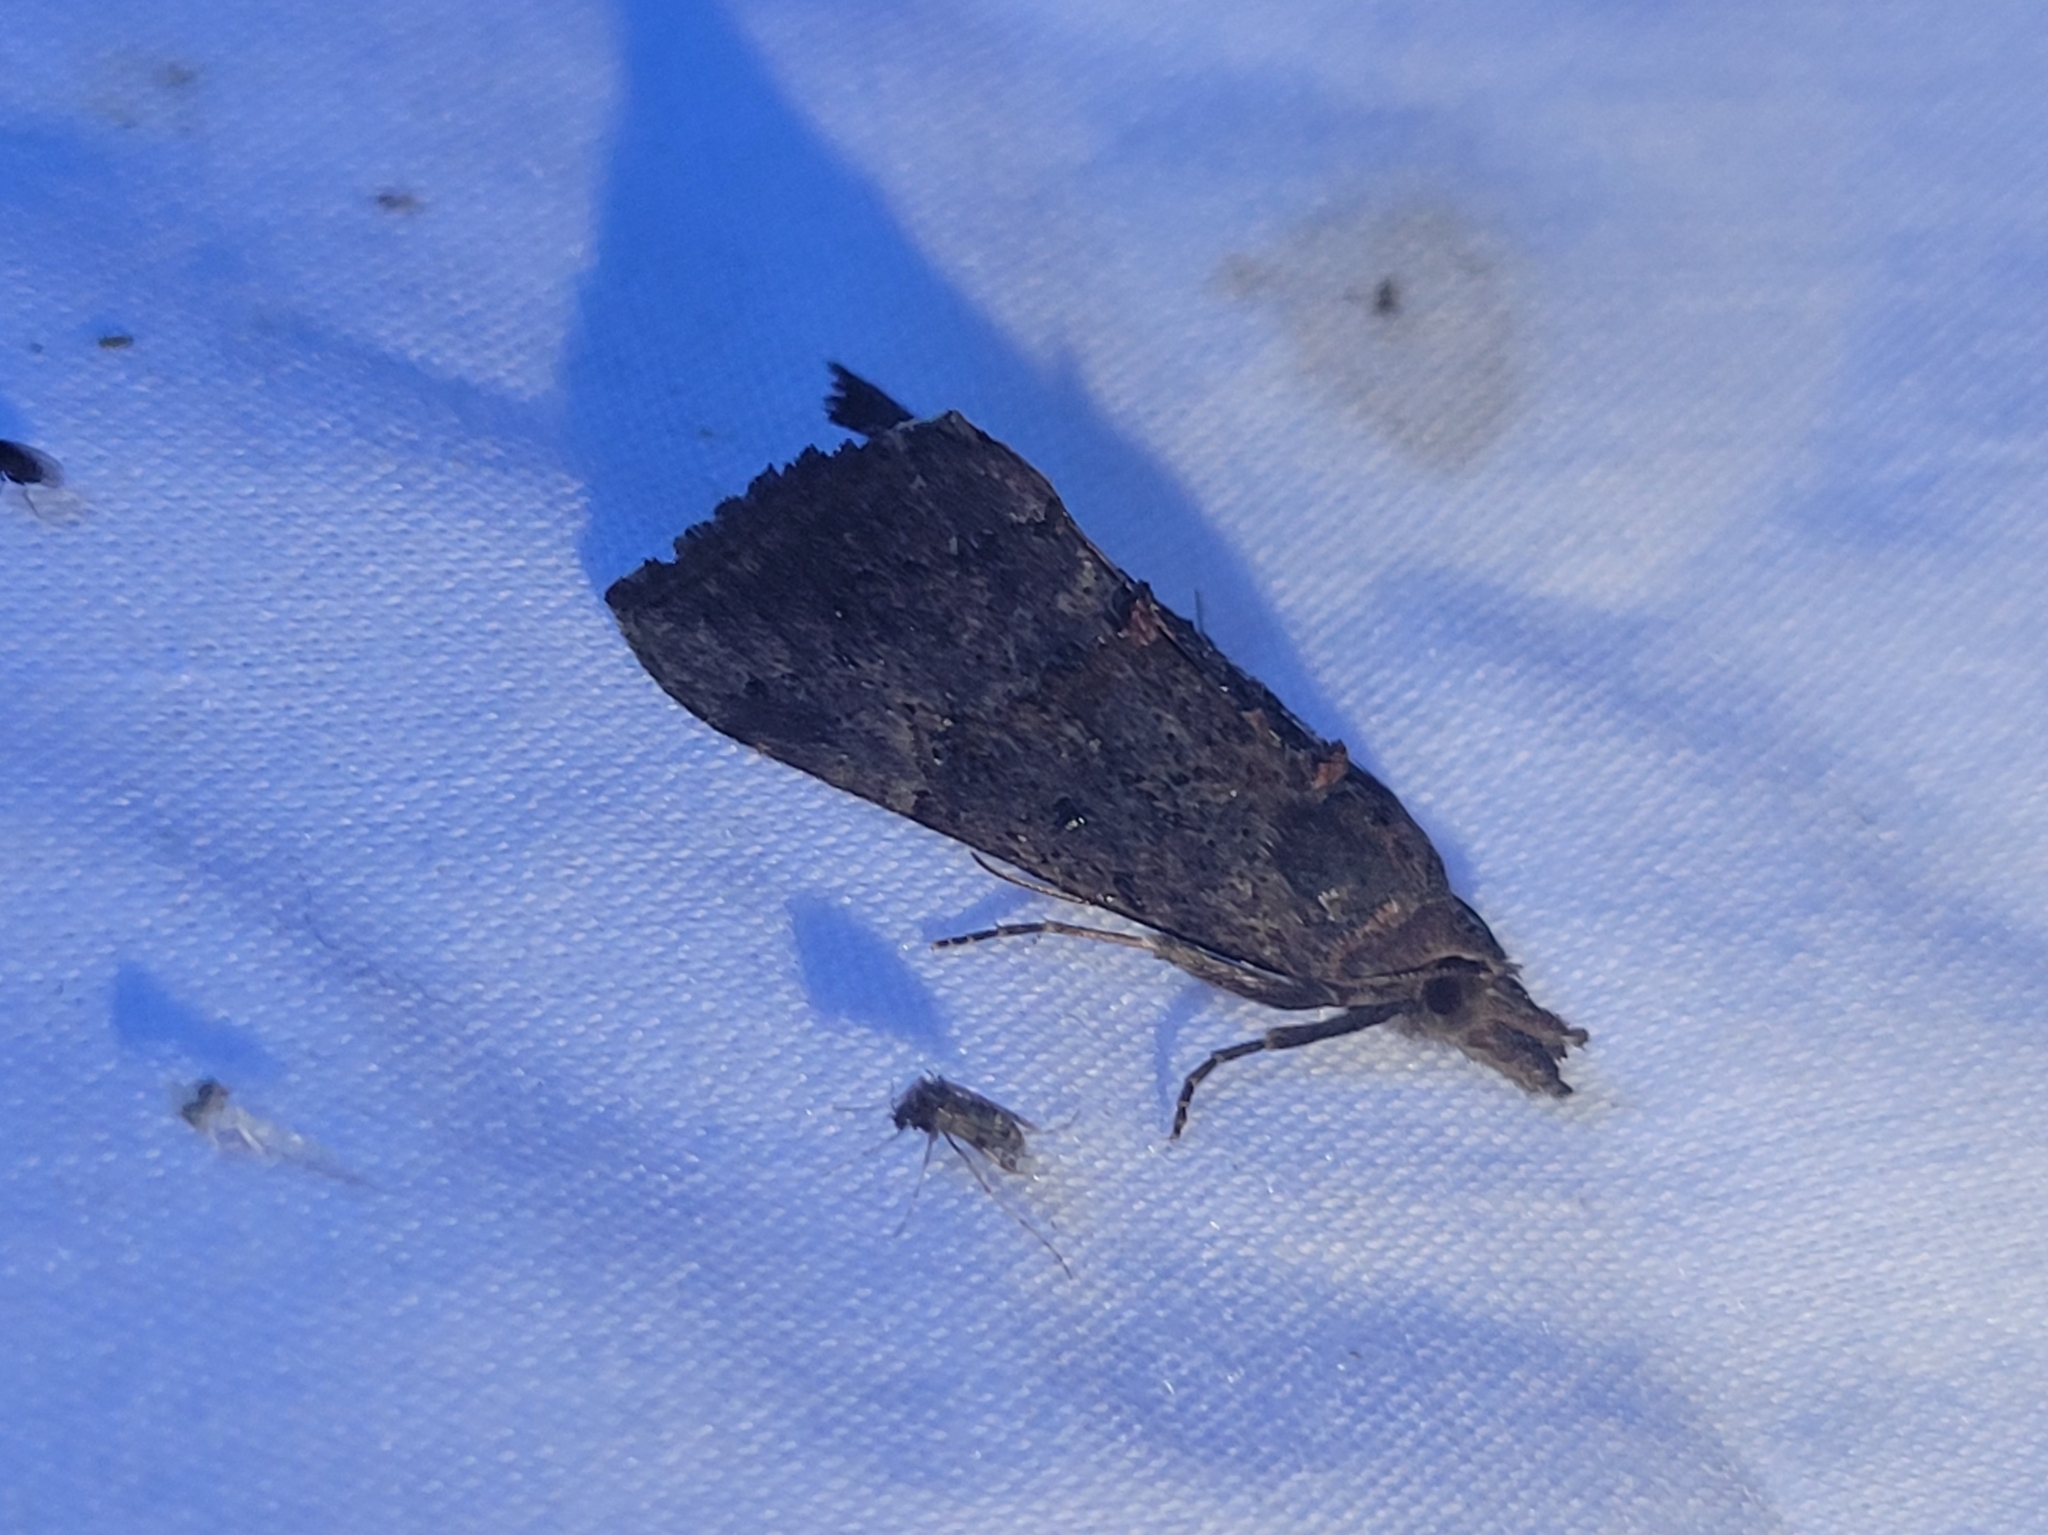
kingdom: Animalia
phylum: Arthropoda
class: Insecta
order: Lepidoptera
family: Erebidae
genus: Hypena
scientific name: Hypena scabra
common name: Green cloverworm
